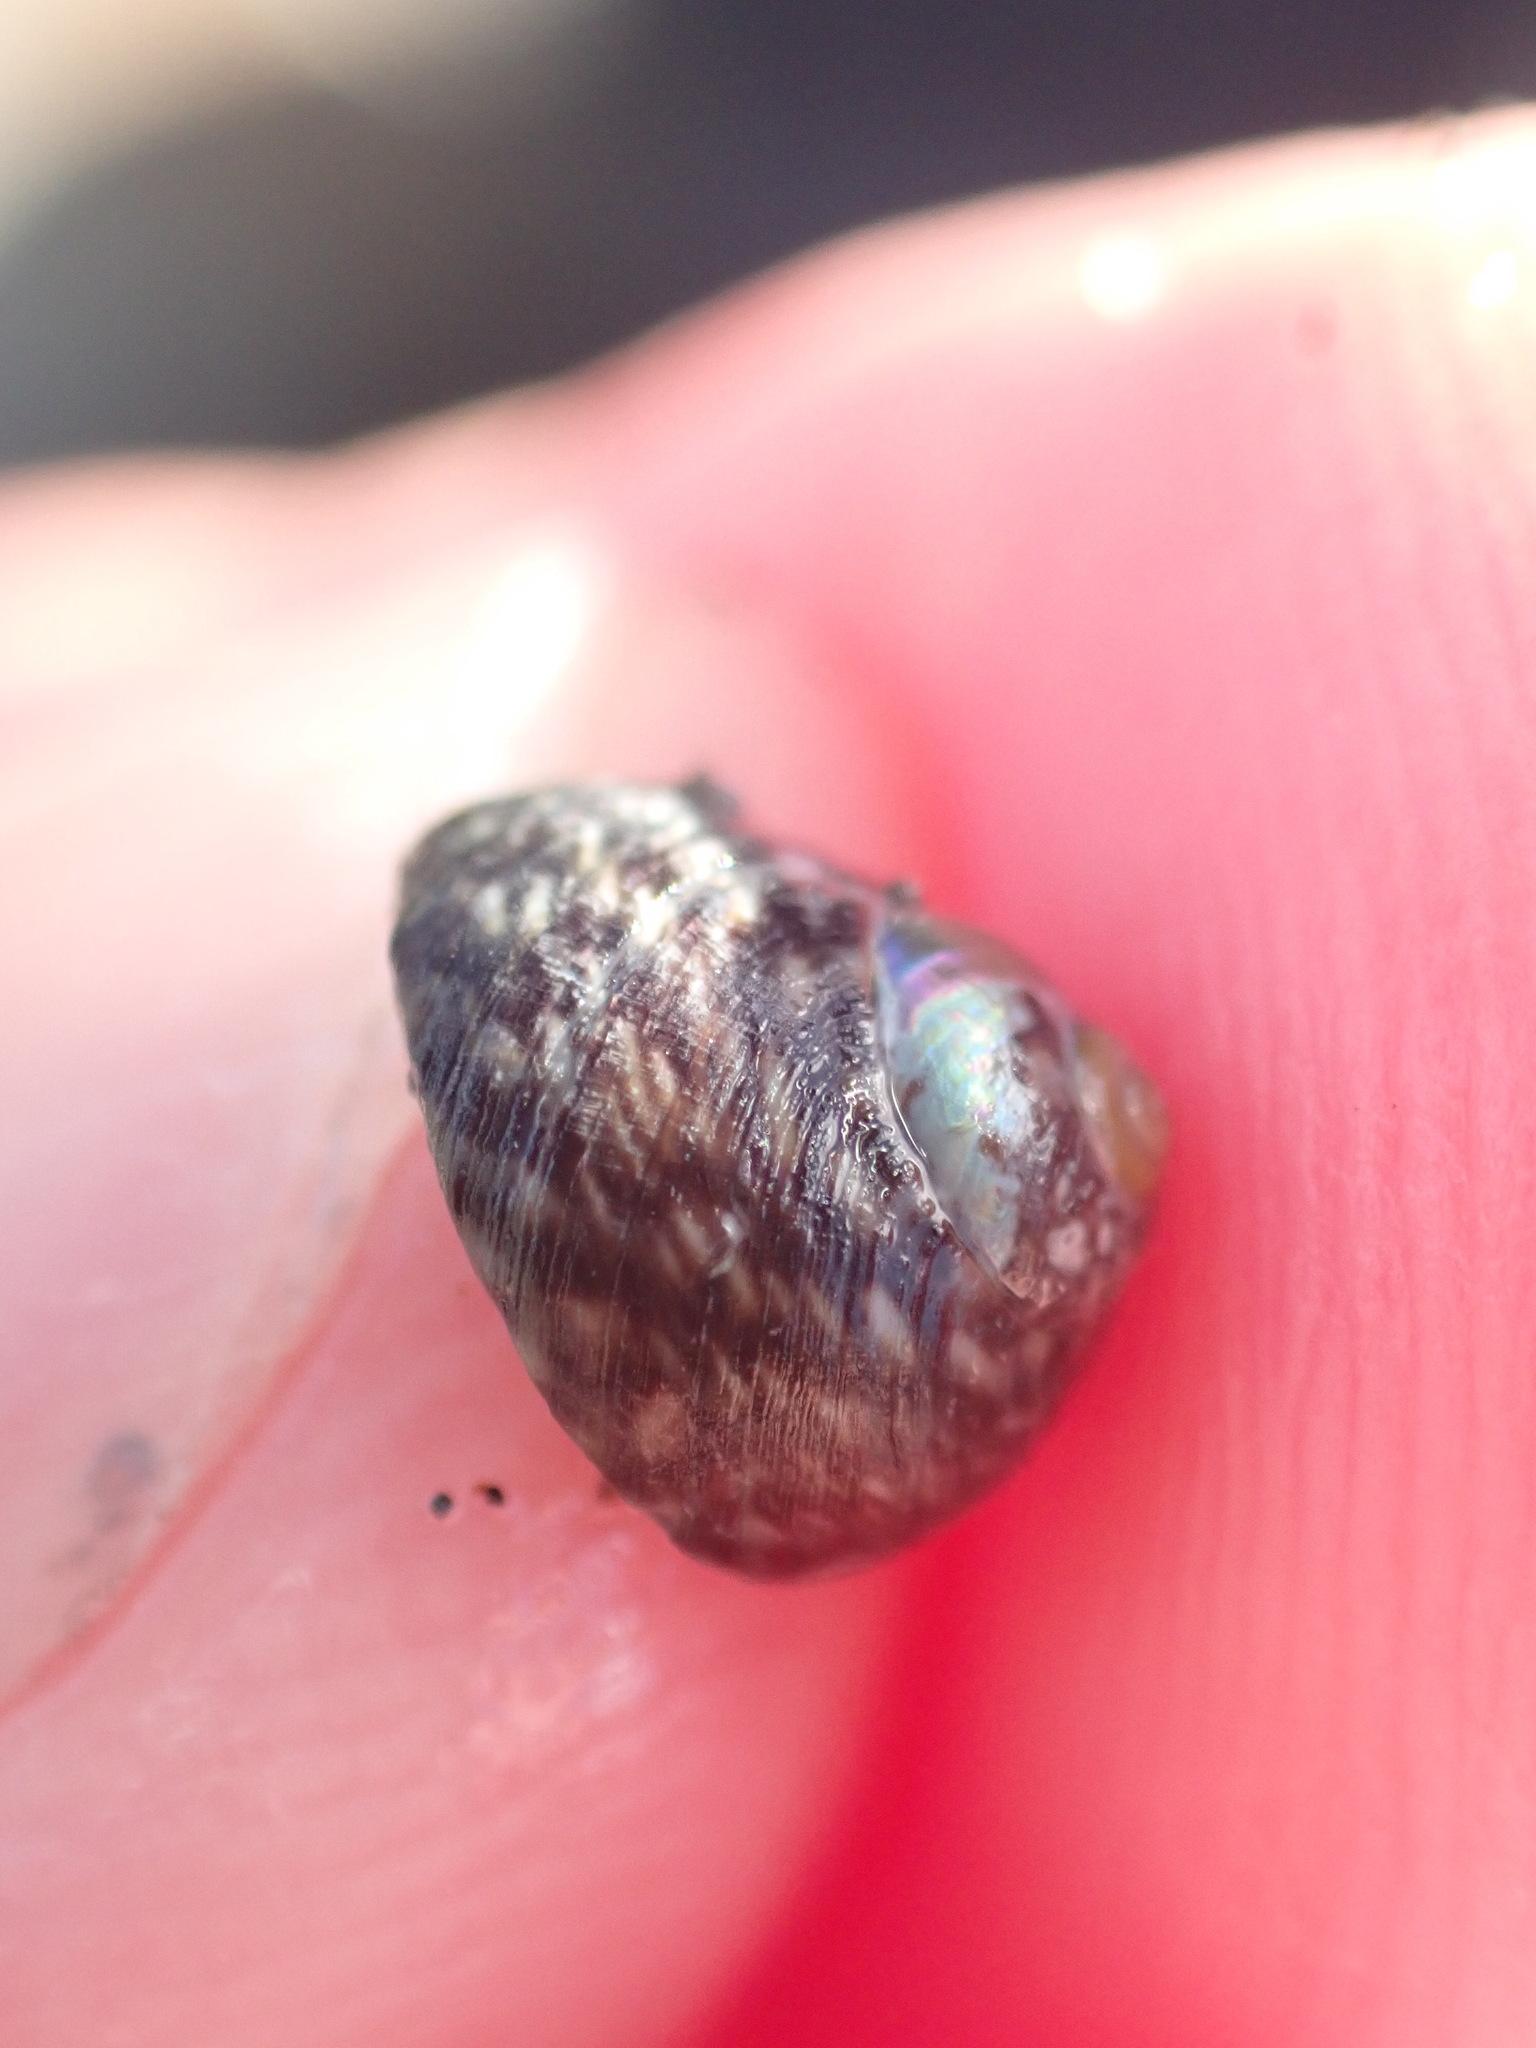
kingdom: Animalia
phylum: Mollusca
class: Gastropoda
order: Trochida
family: Trochidae
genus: Diloma
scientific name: Diloma coracinum
